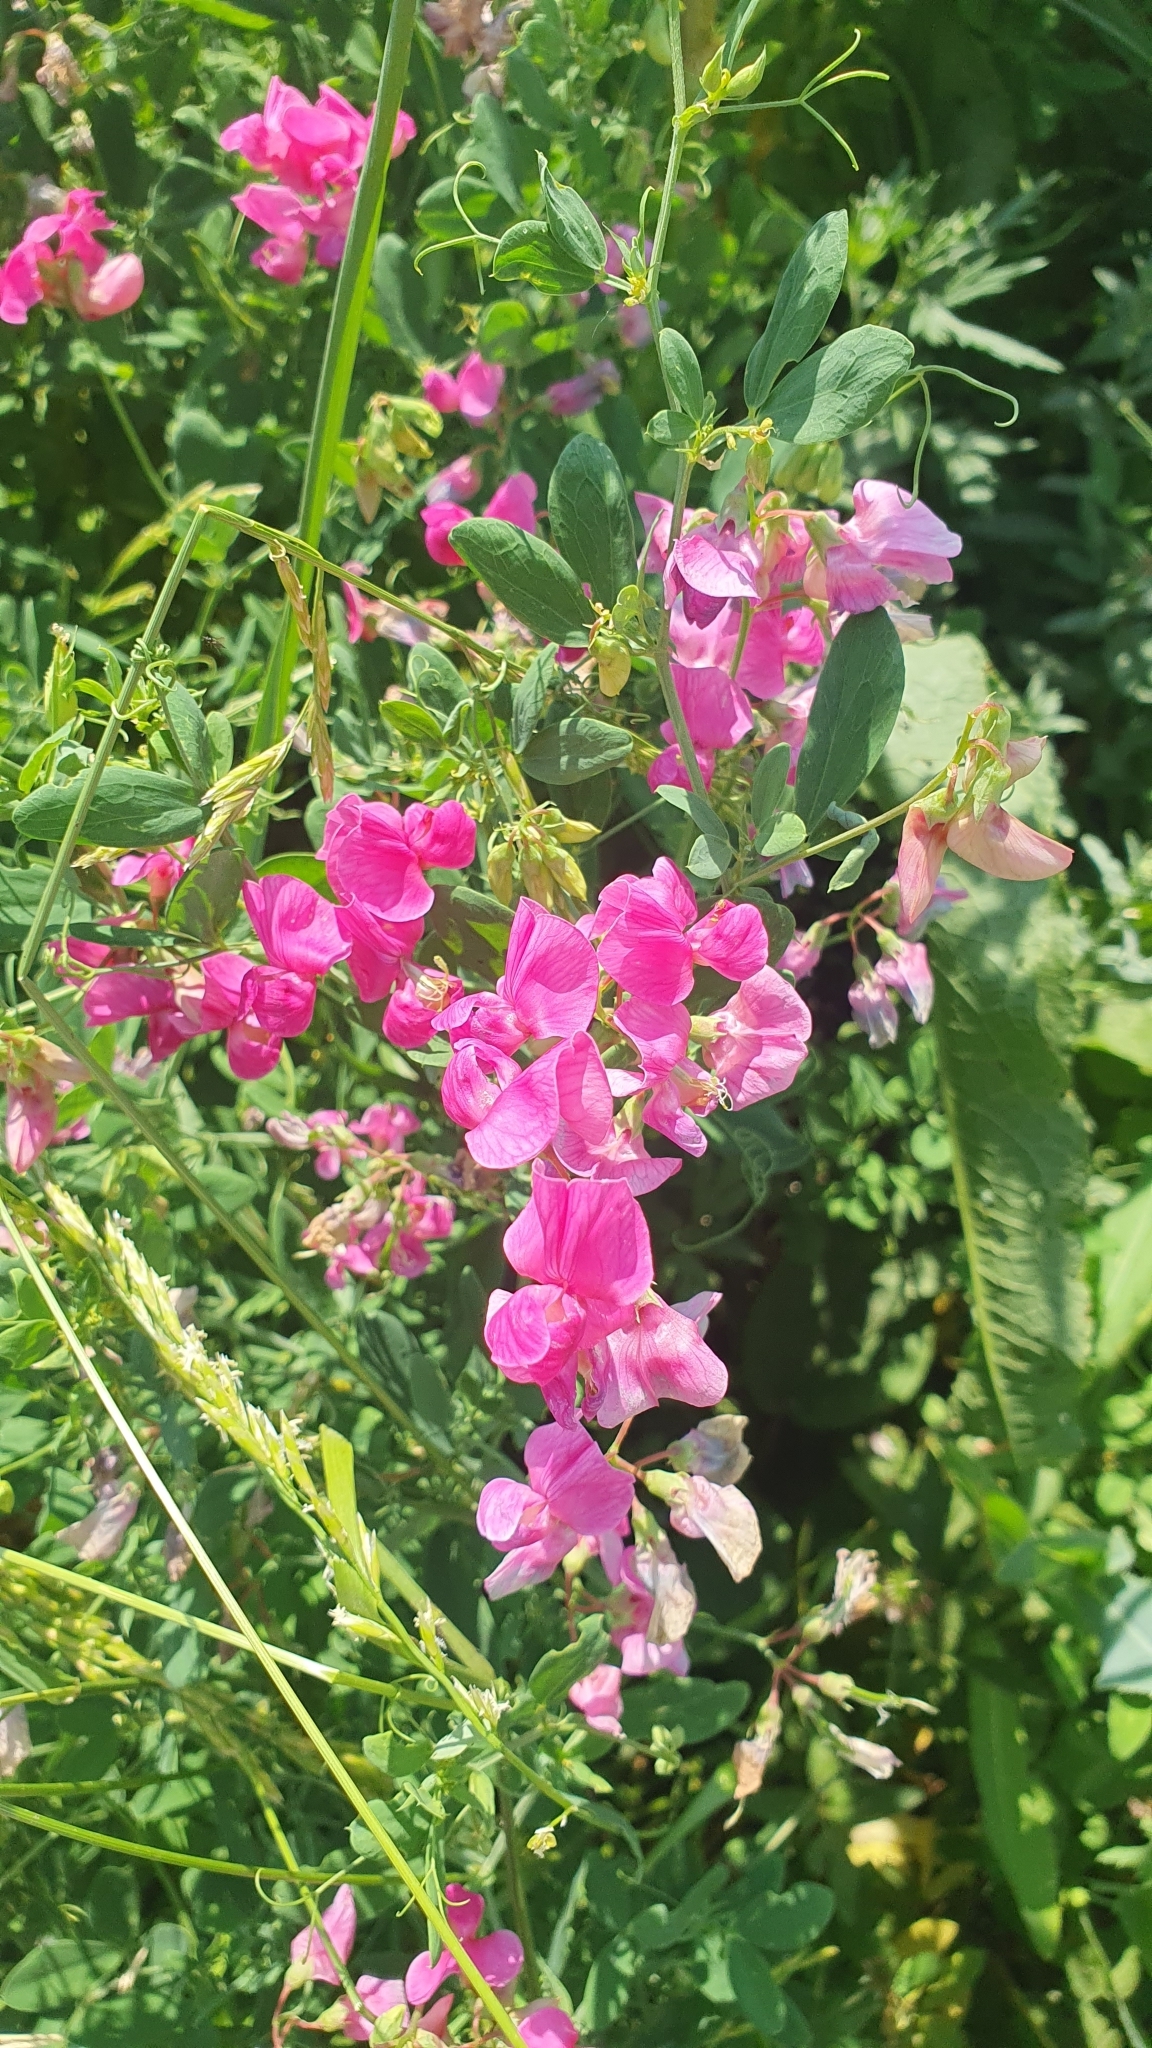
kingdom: Plantae
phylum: Tracheophyta
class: Magnoliopsida
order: Fabales
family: Fabaceae
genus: Lathyrus
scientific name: Lathyrus tuberosus
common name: Tuberous pea
